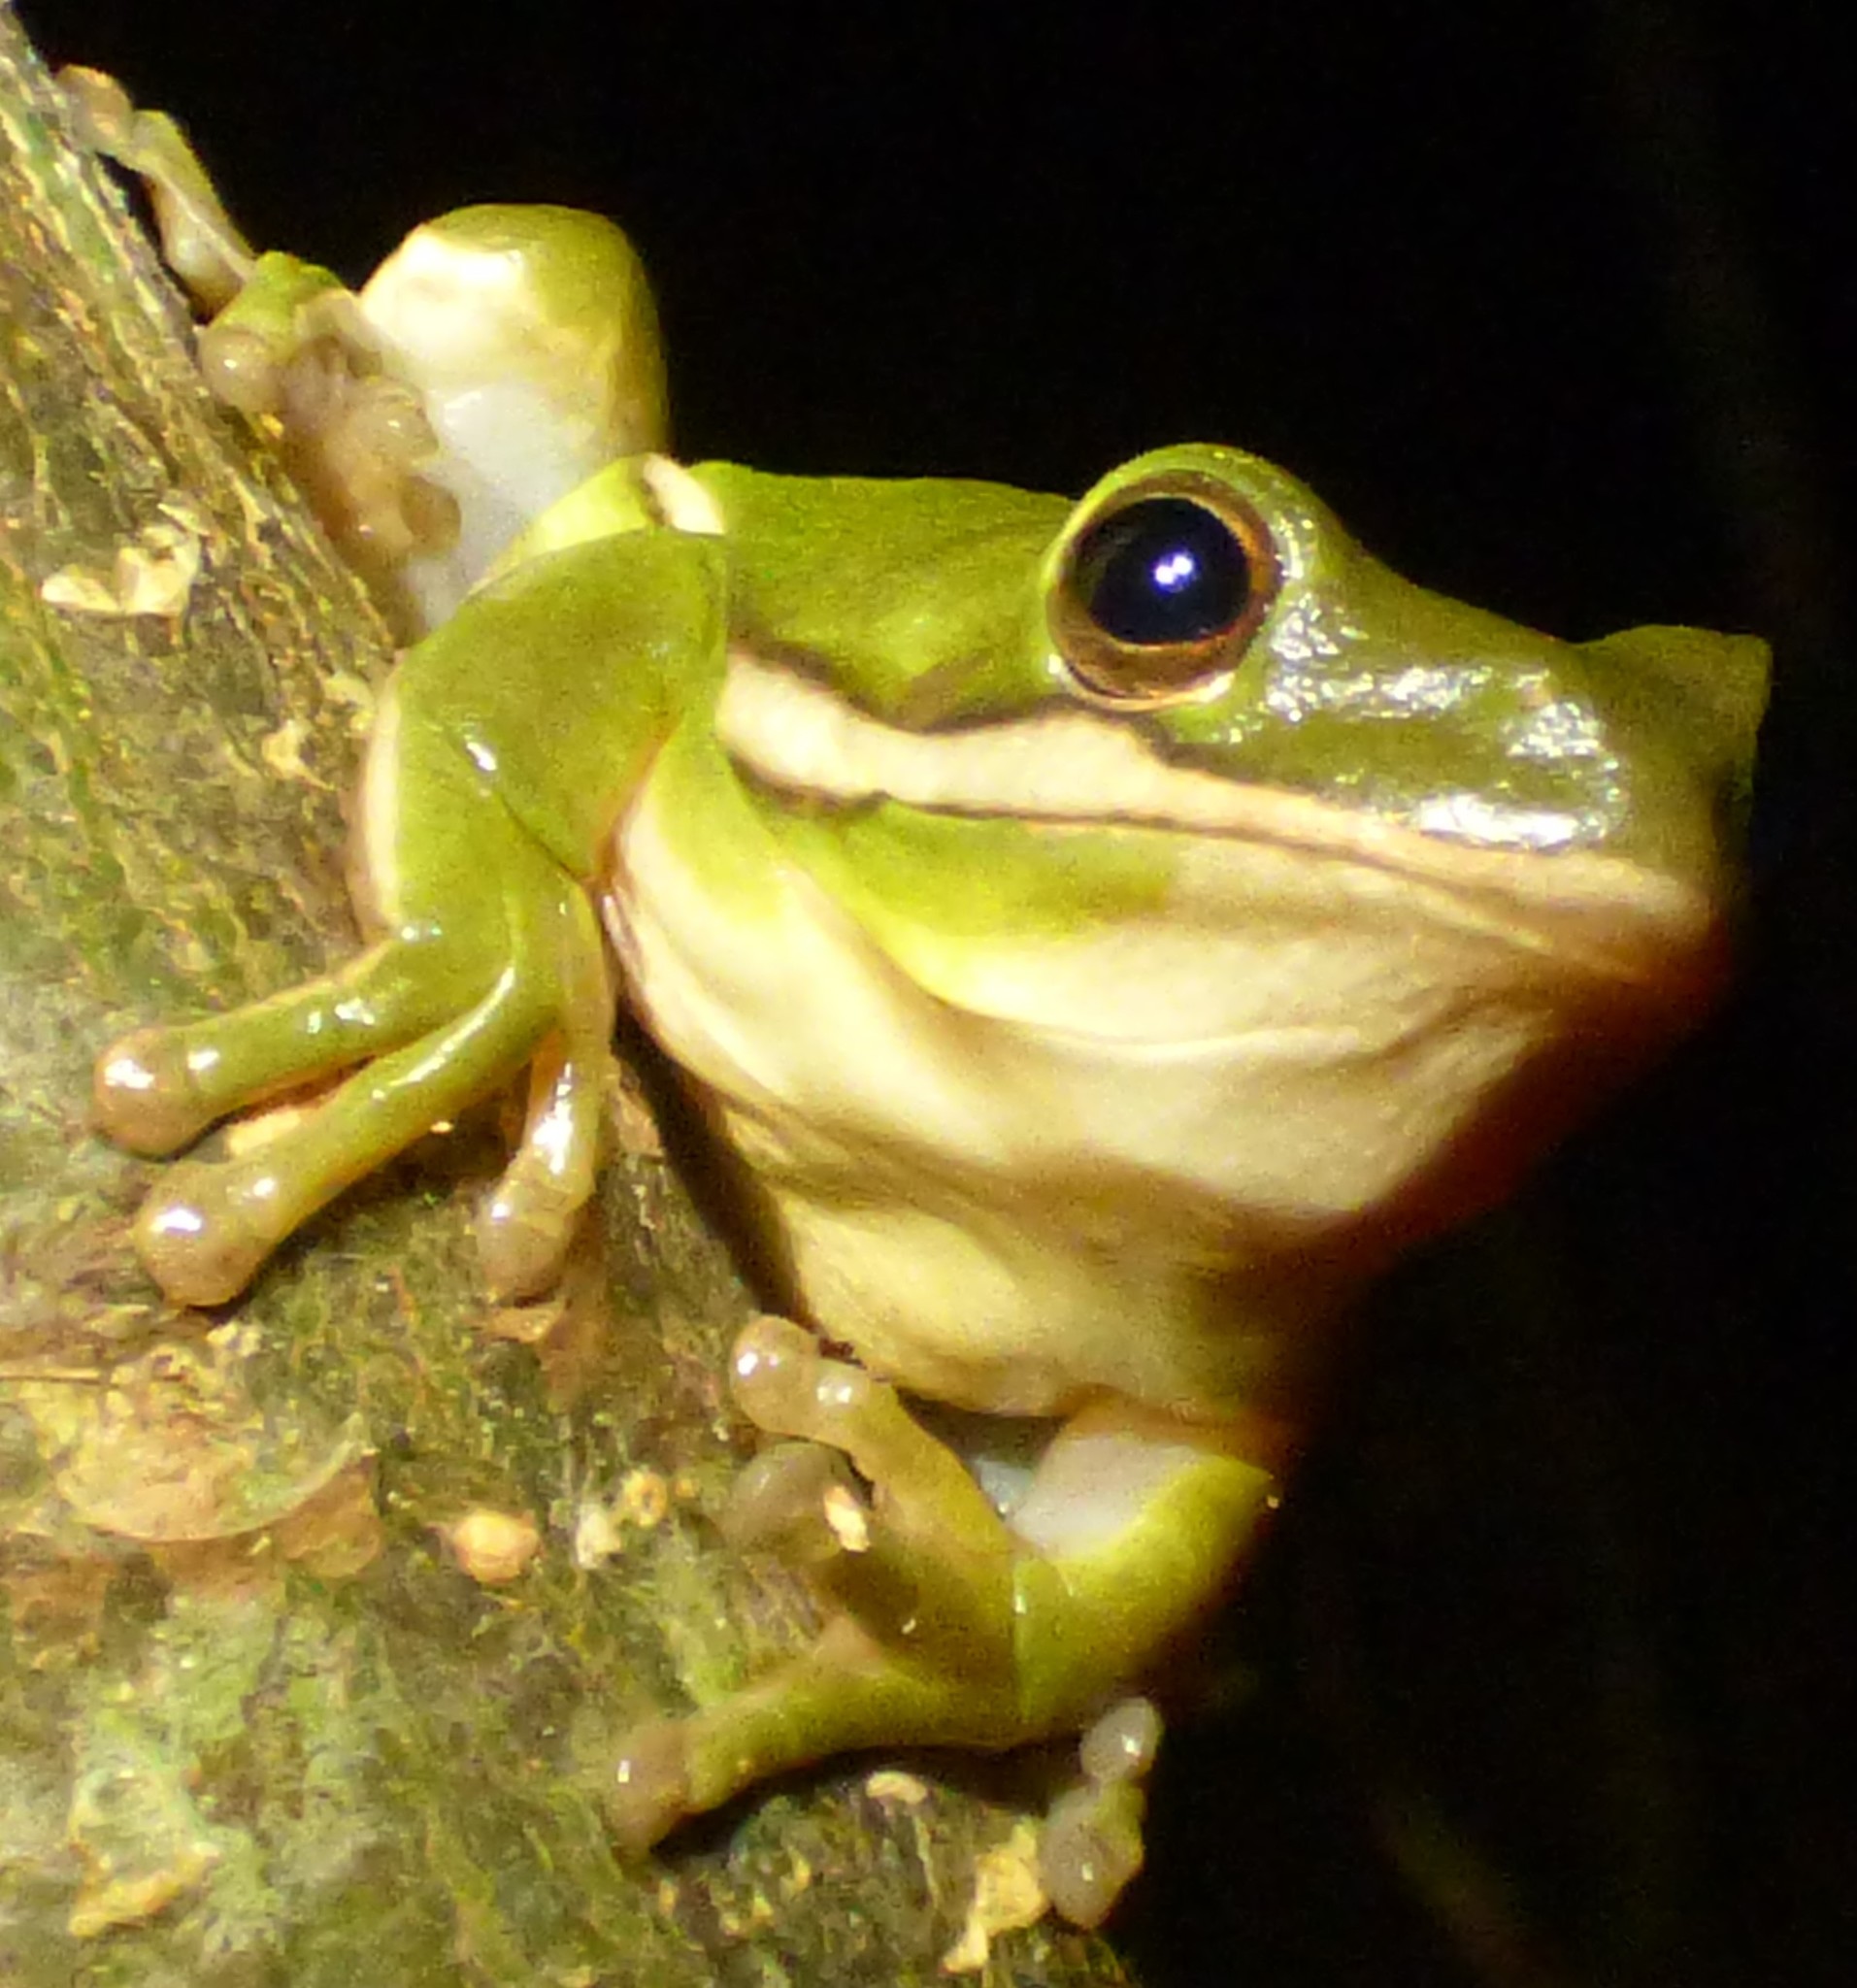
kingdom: Animalia
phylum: Chordata
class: Amphibia
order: Anura
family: Hylidae
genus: Dryophytes
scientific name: Dryophytes cinereus
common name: Green treefrog
